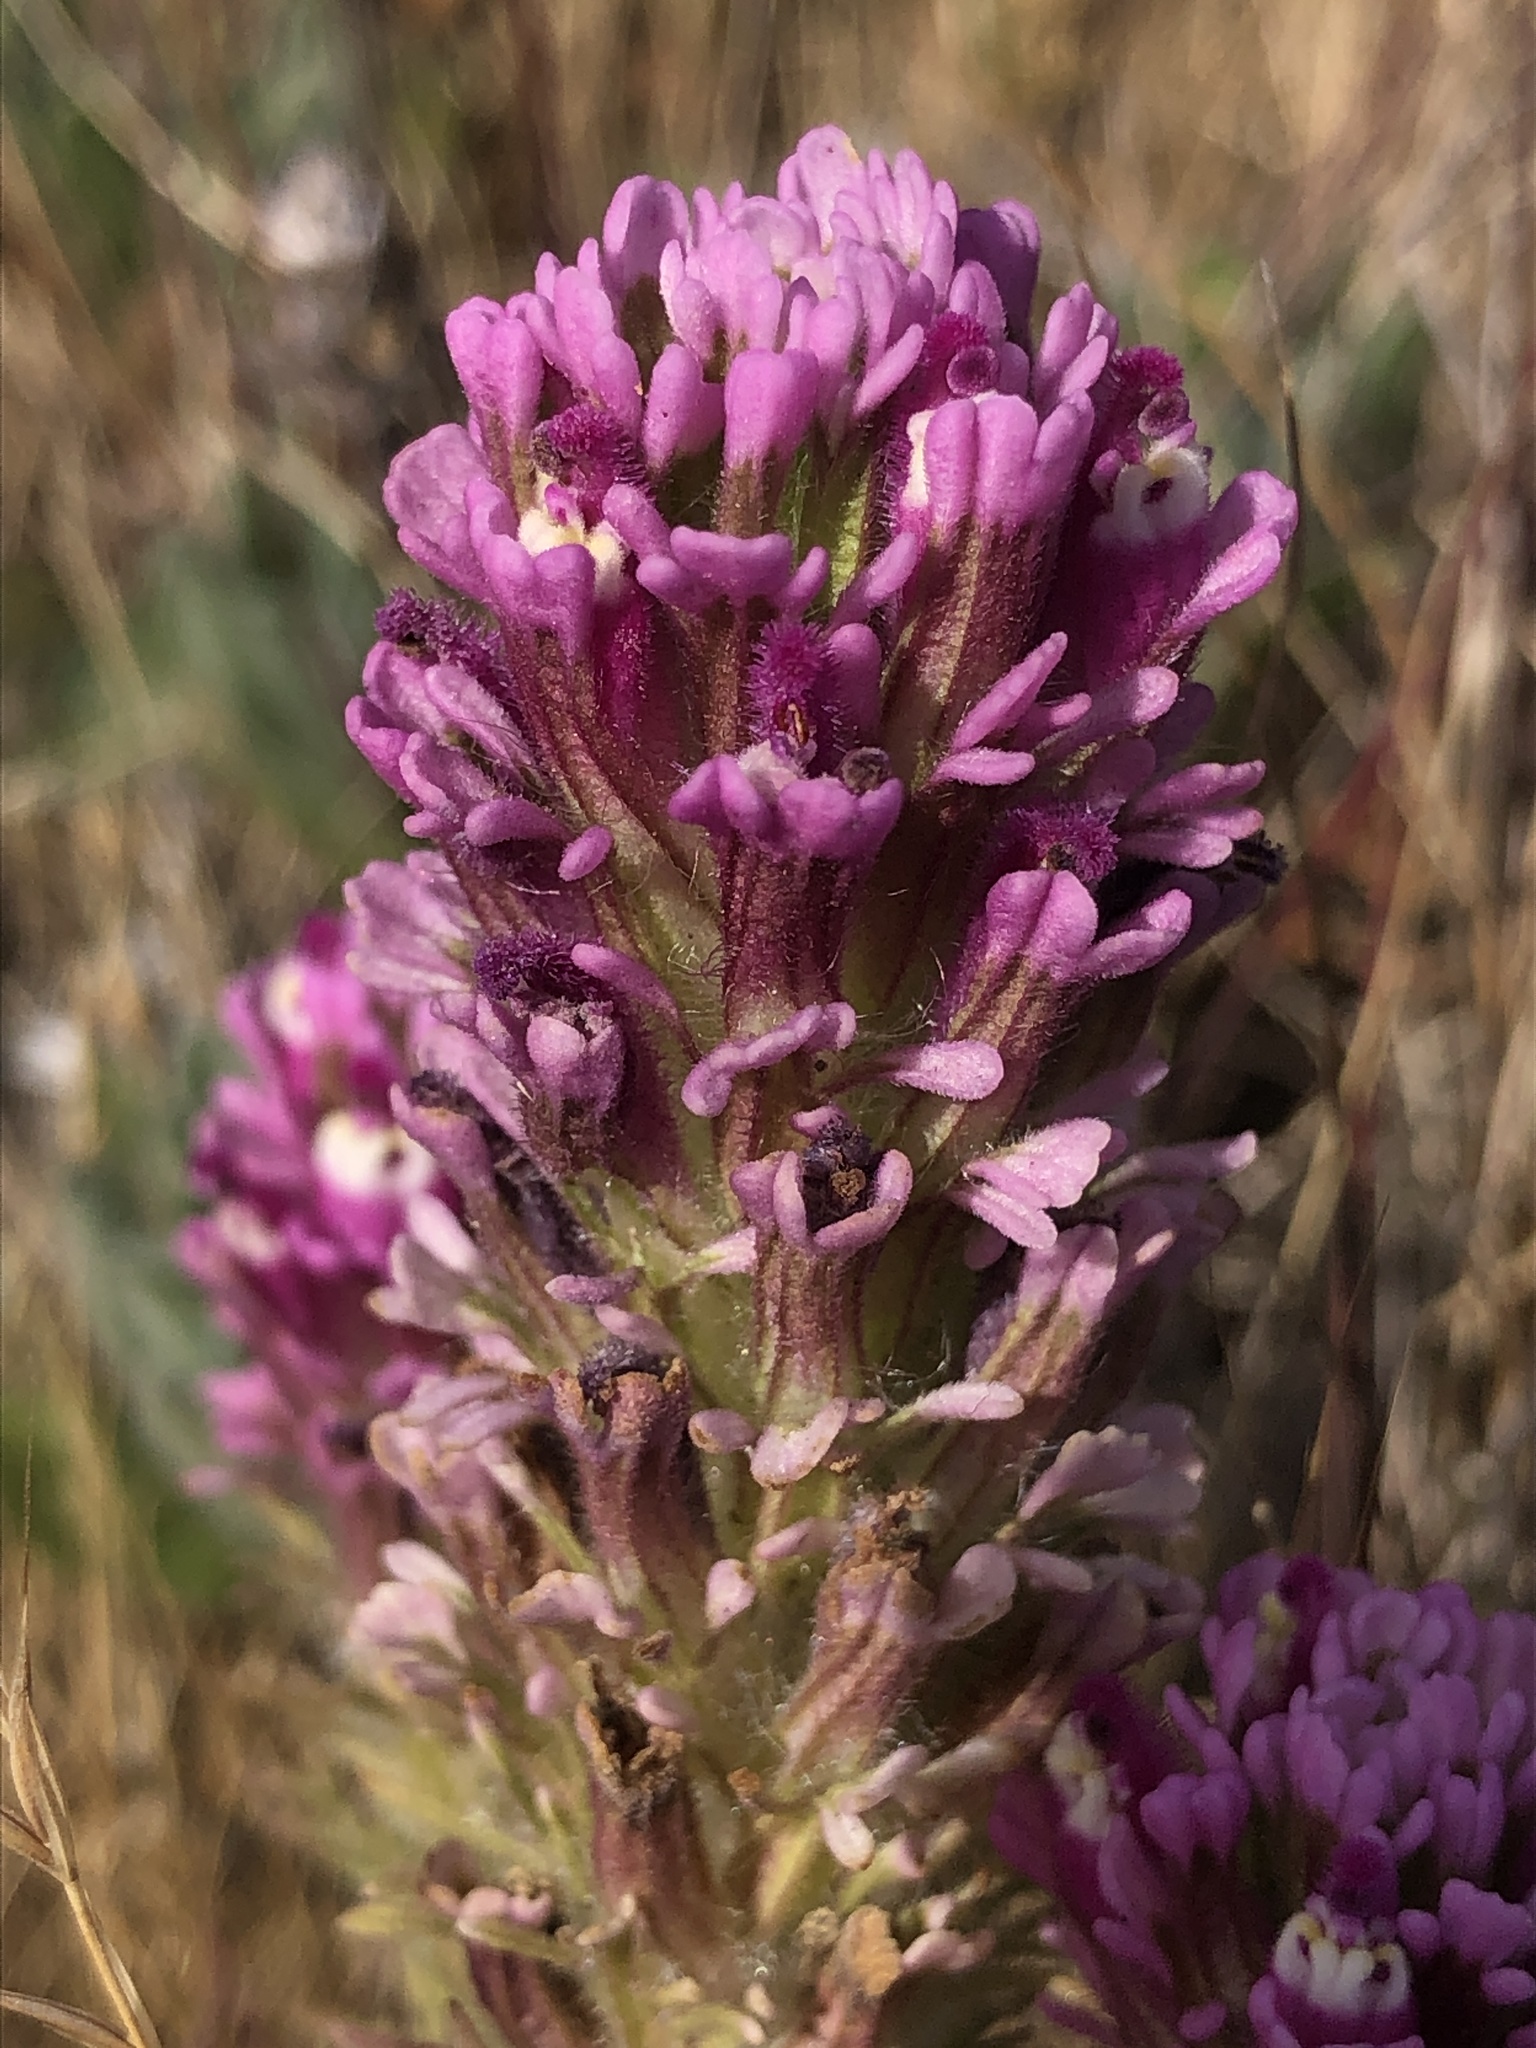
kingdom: Plantae
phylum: Tracheophyta
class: Magnoliopsida
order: Lamiales
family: Orobanchaceae
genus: Castilleja
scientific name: Castilleja exserta
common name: Purple owl-clover
